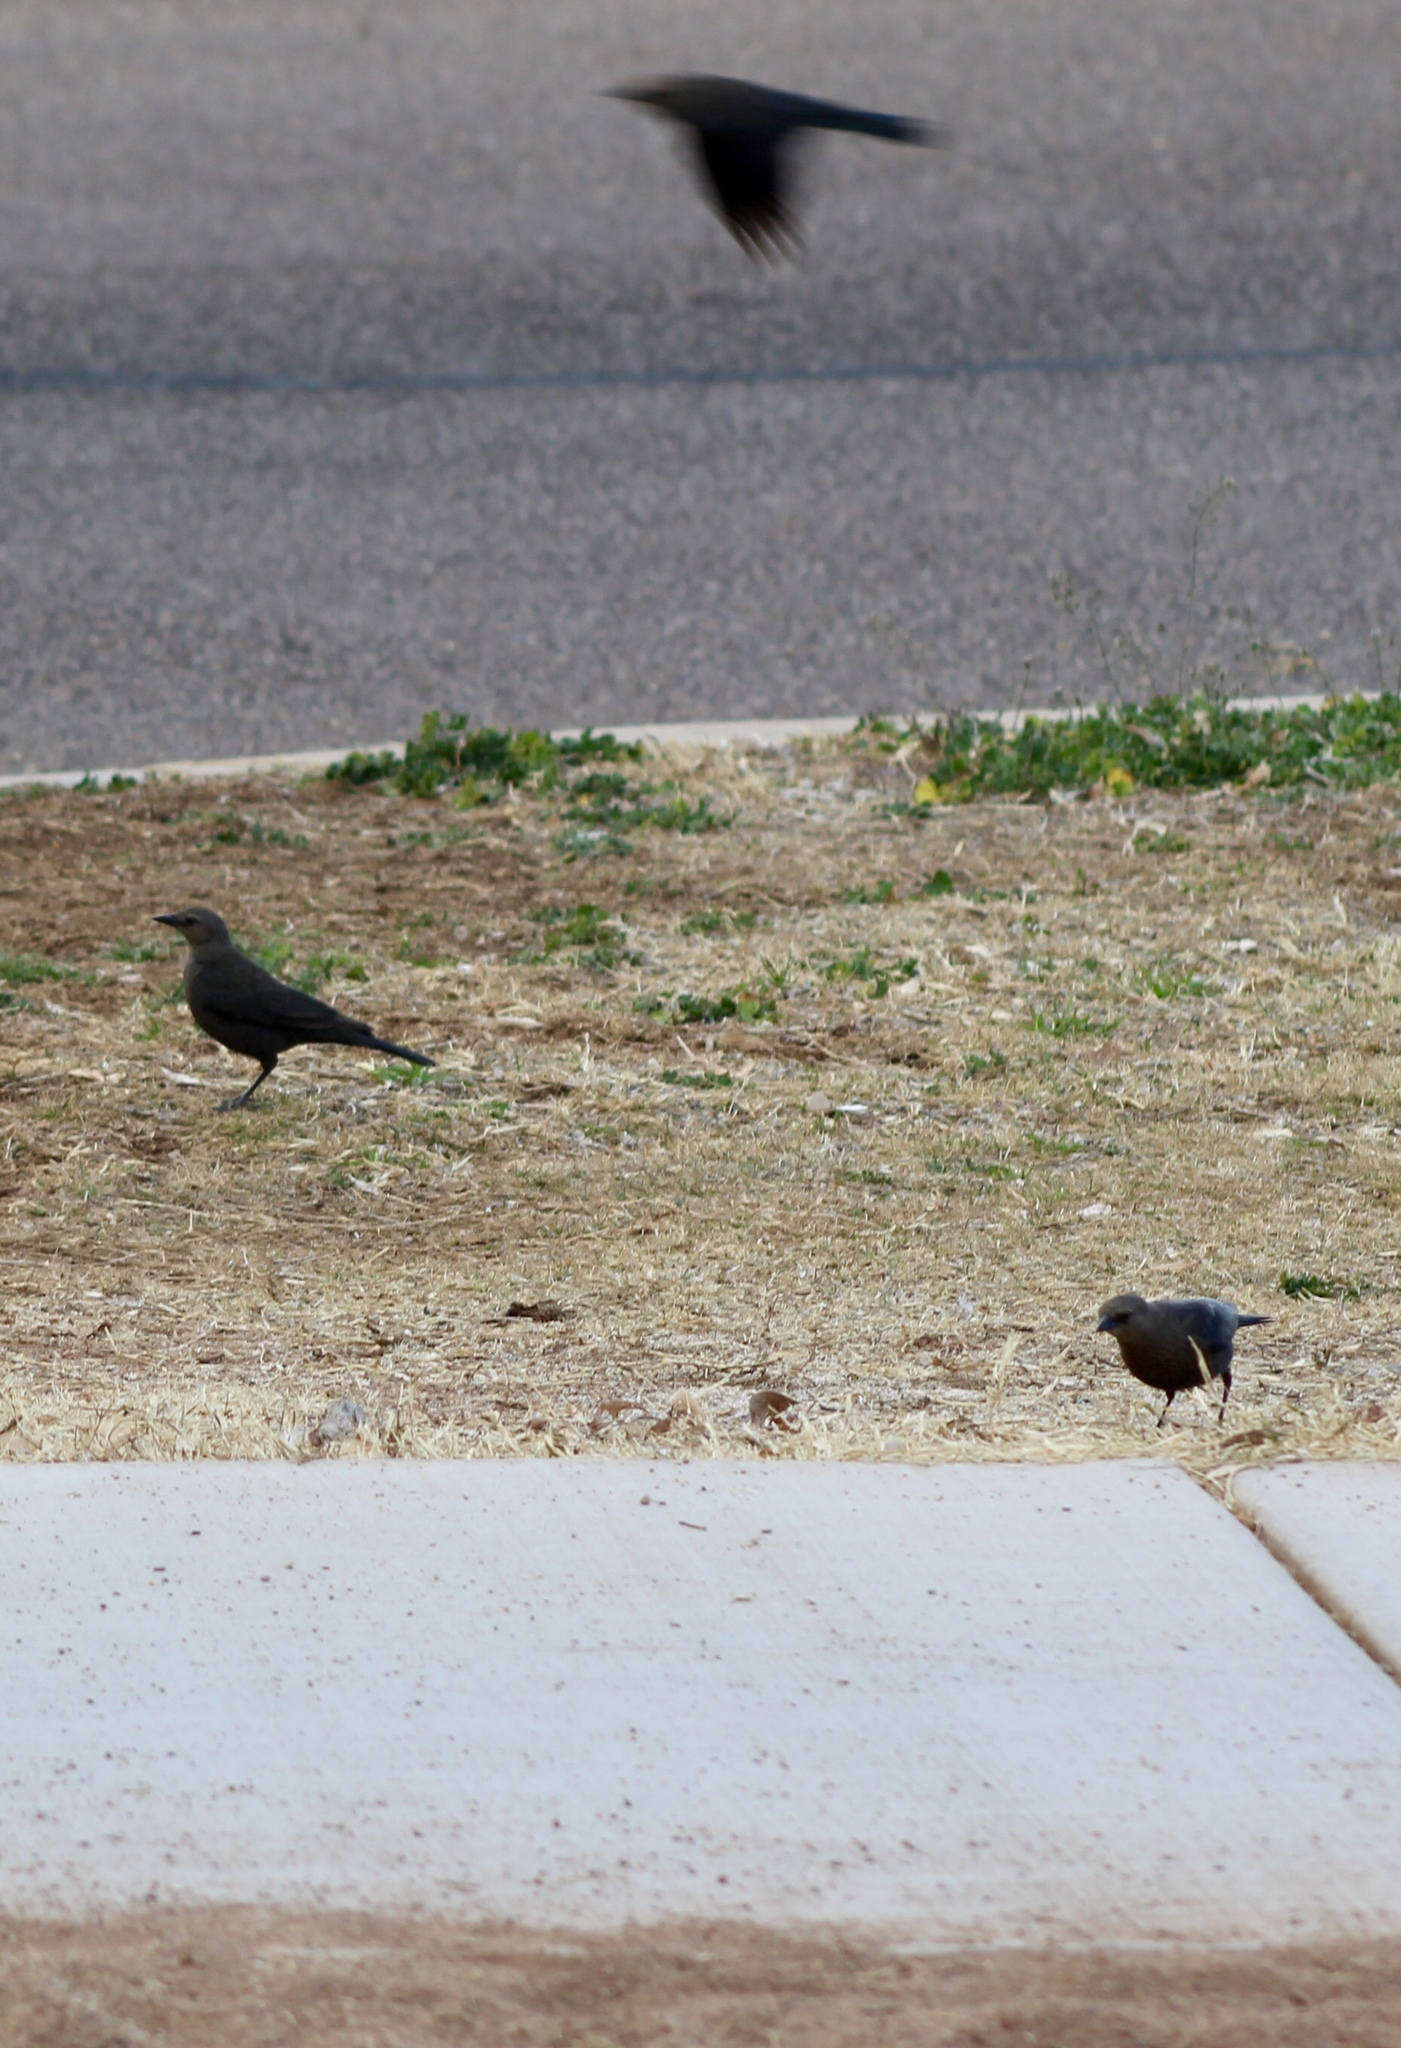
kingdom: Animalia
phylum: Chordata
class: Aves
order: Passeriformes
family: Icteridae
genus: Euphagus
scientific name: Euphagus cyanocephalus
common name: Brewer's blackbird
